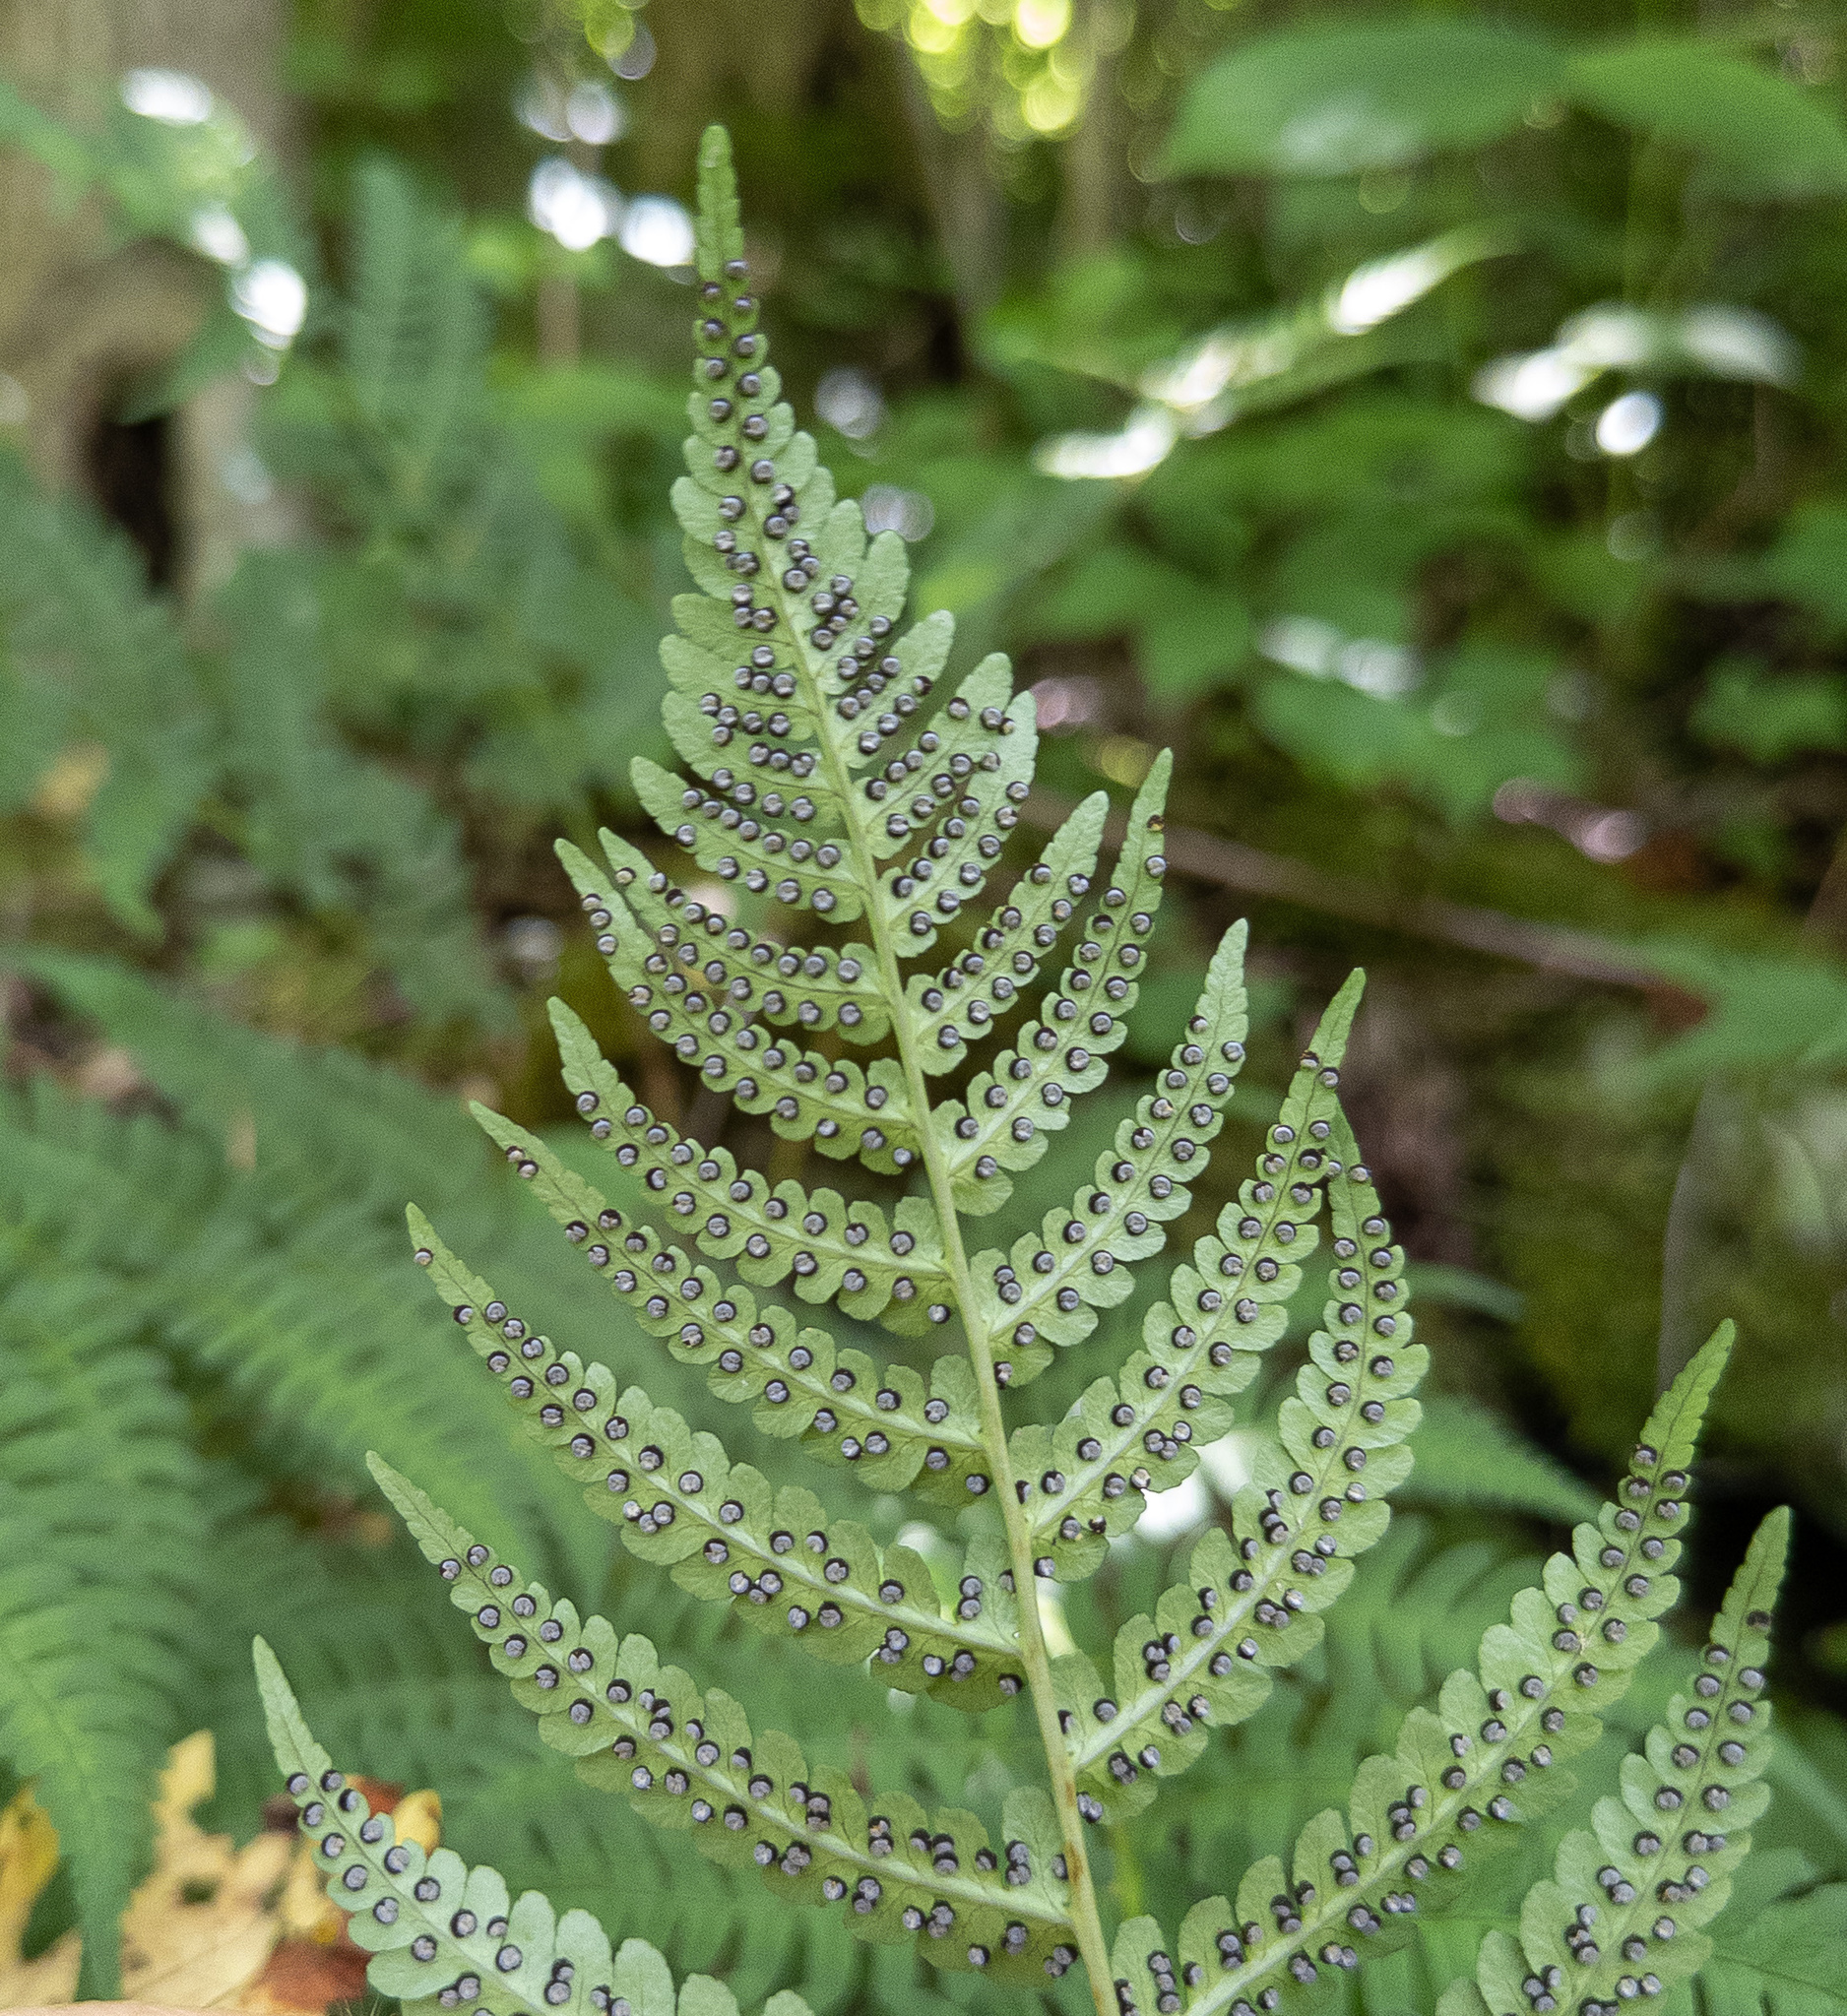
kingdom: Plantae
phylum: Tracheophyta
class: Polypodiopsida
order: Polypodiales
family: Dryopteridaceae
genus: Dryopteris
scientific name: Dryopteris marginalis
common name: Marginal wood fern
